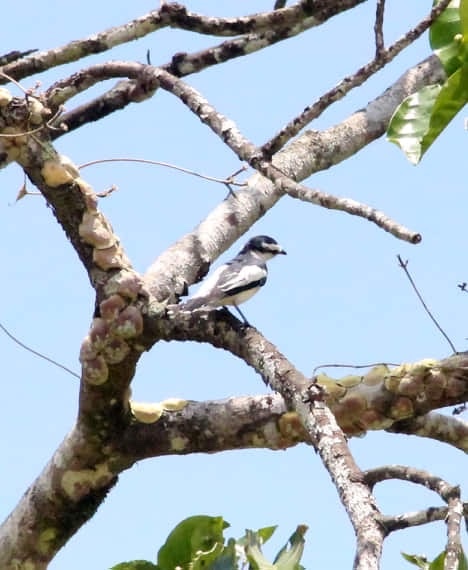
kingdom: Animalia
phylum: Chordata
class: Aves
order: Passeriformes
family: Campephagidae
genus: Lalage
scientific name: Lalage nigra
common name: Pied triller
